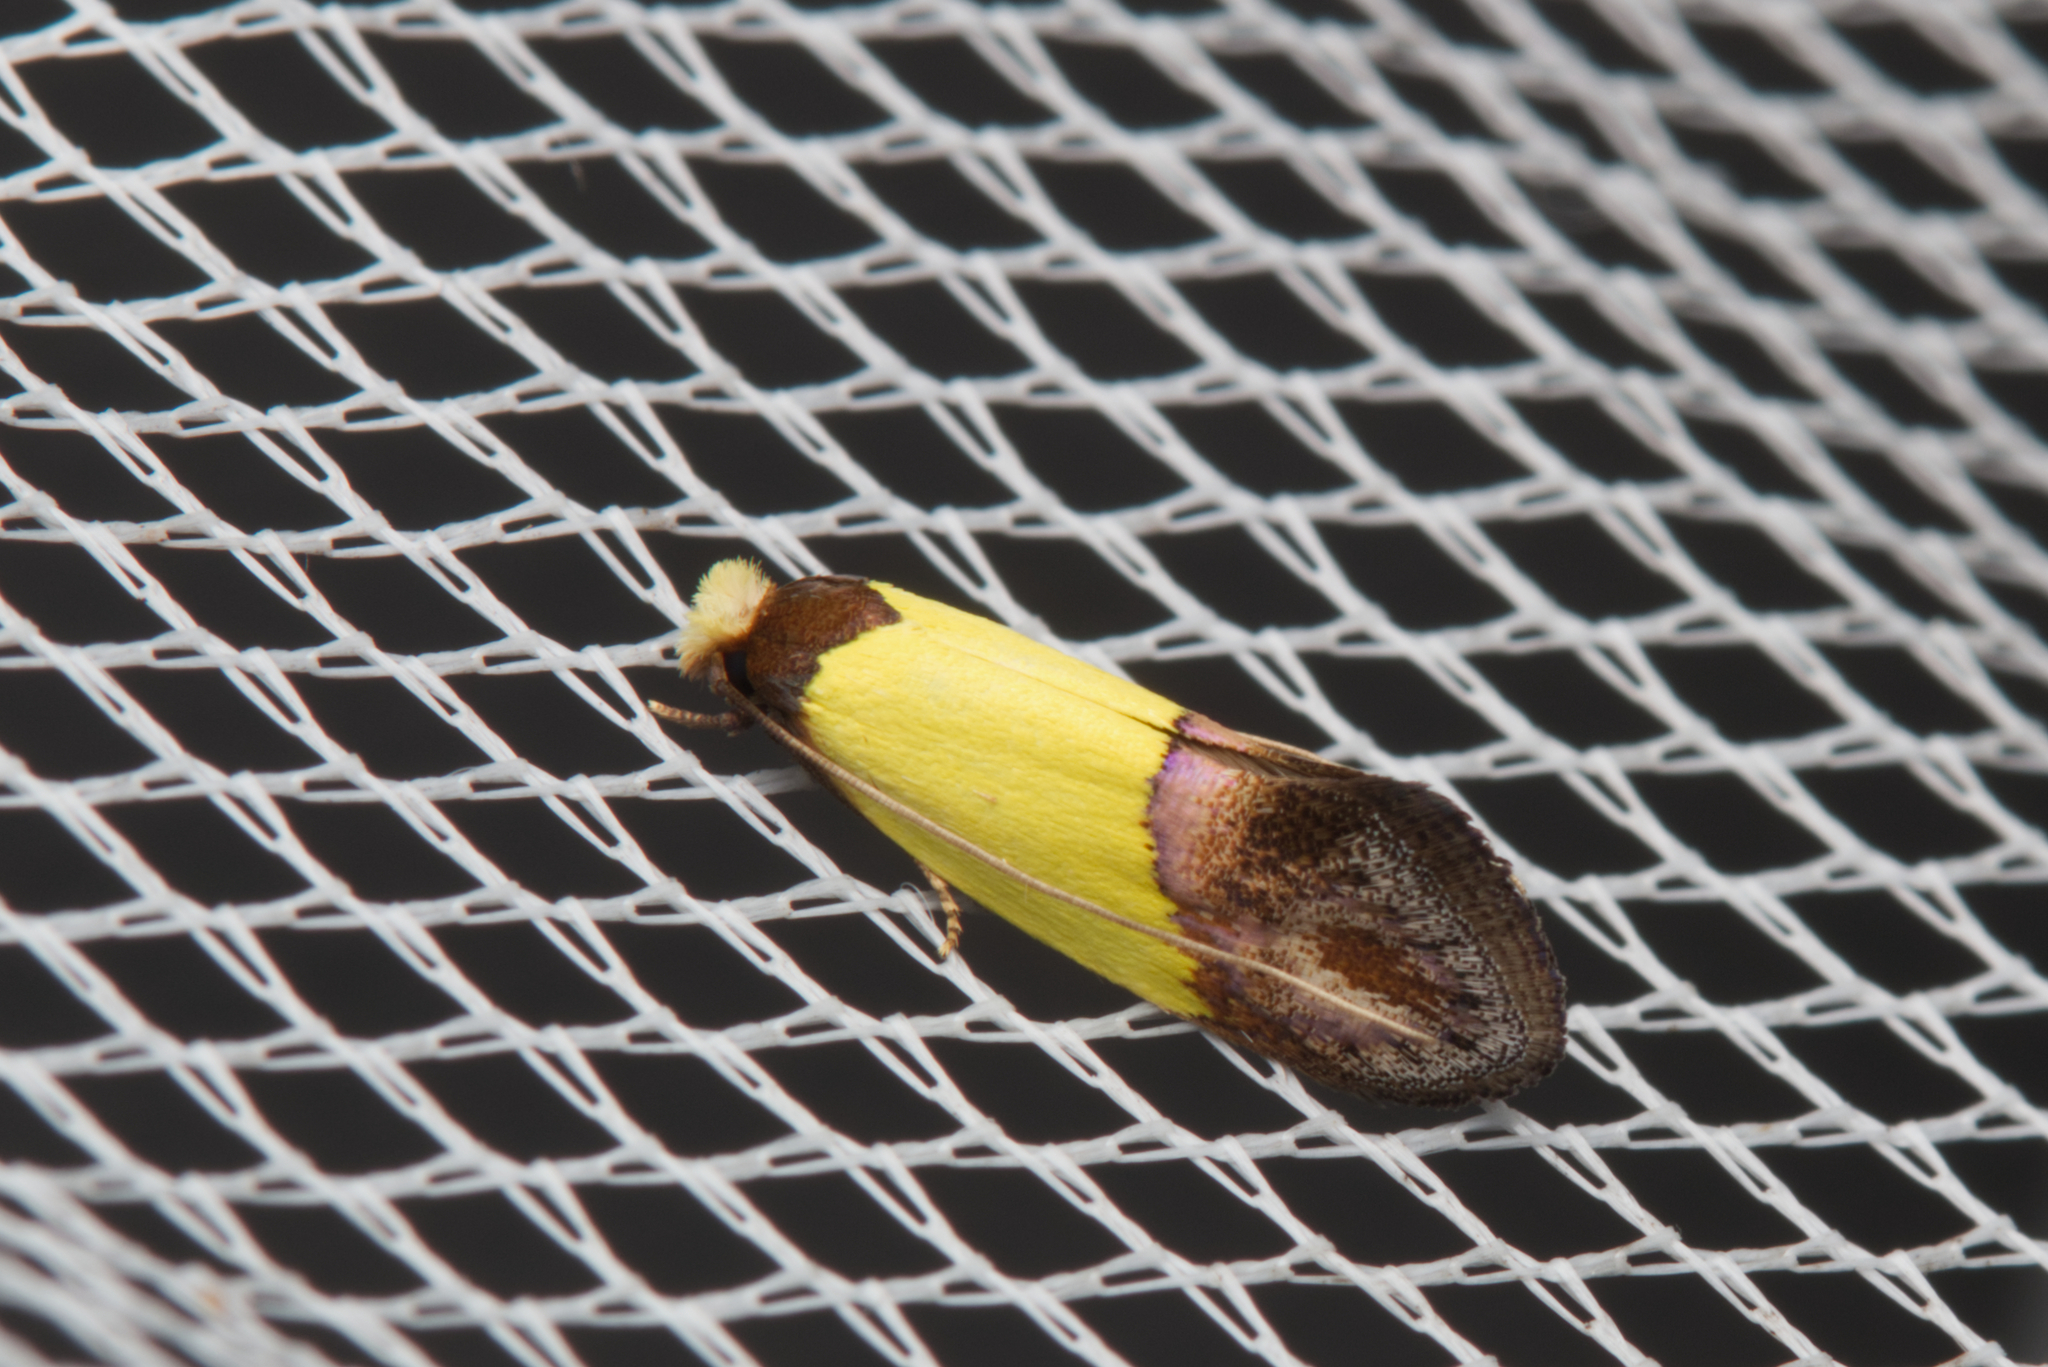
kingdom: Animalia
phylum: Arthropoda
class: Insecta
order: Lepidoptera
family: Tineidae
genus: Edosa
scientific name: Edosa xystidophora
